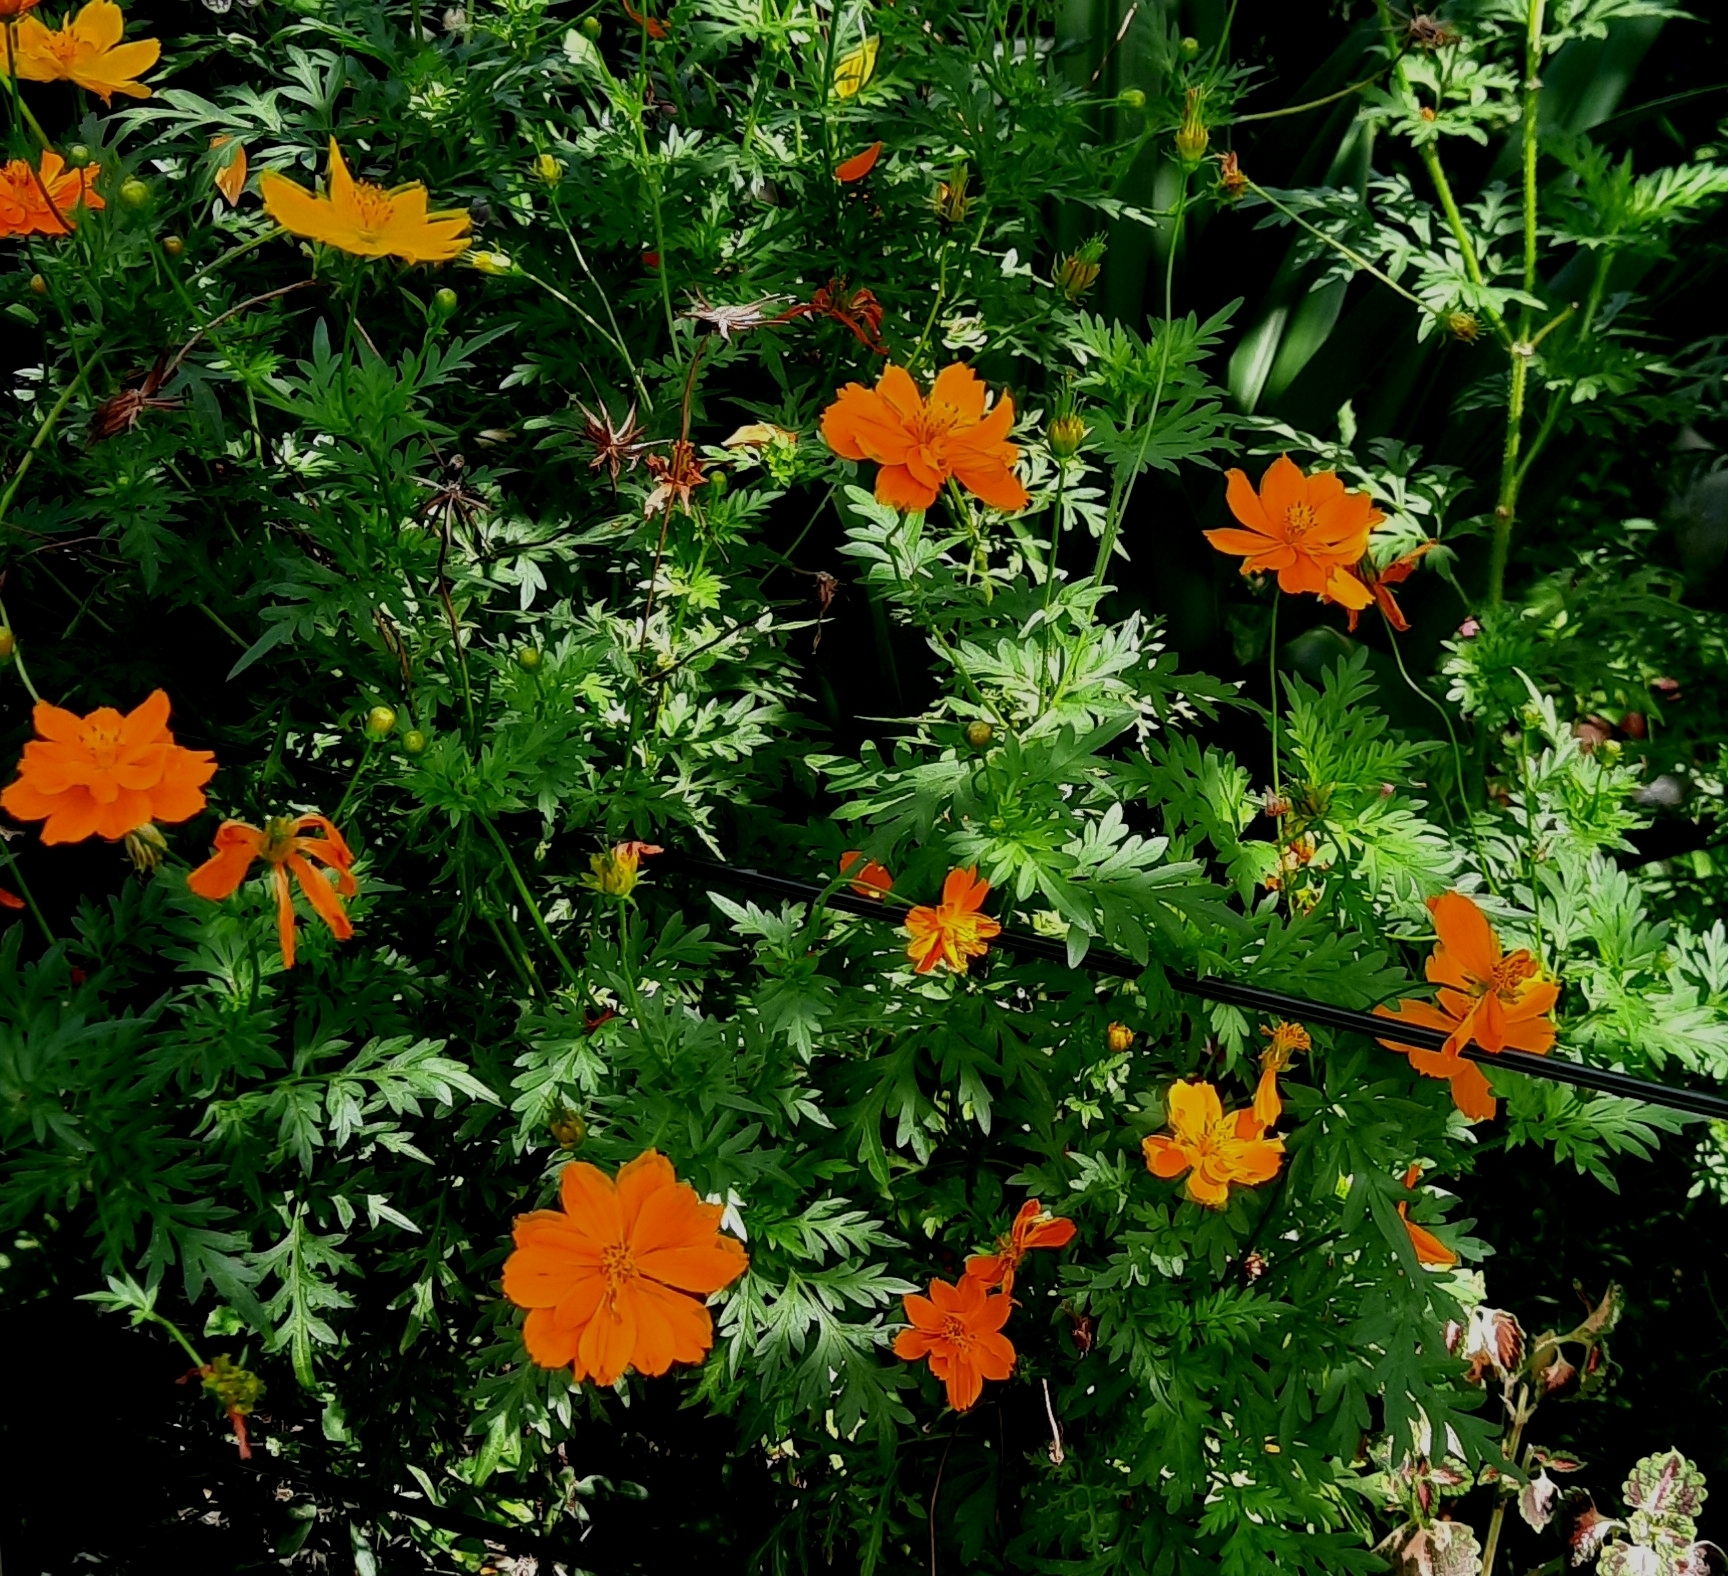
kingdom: Plantae
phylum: Tracheophyta
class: Magnoliopsida
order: Asterales
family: Asteraceae
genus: Cosmos
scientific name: Cosmos sulphureus
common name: Sulphur cosmos
